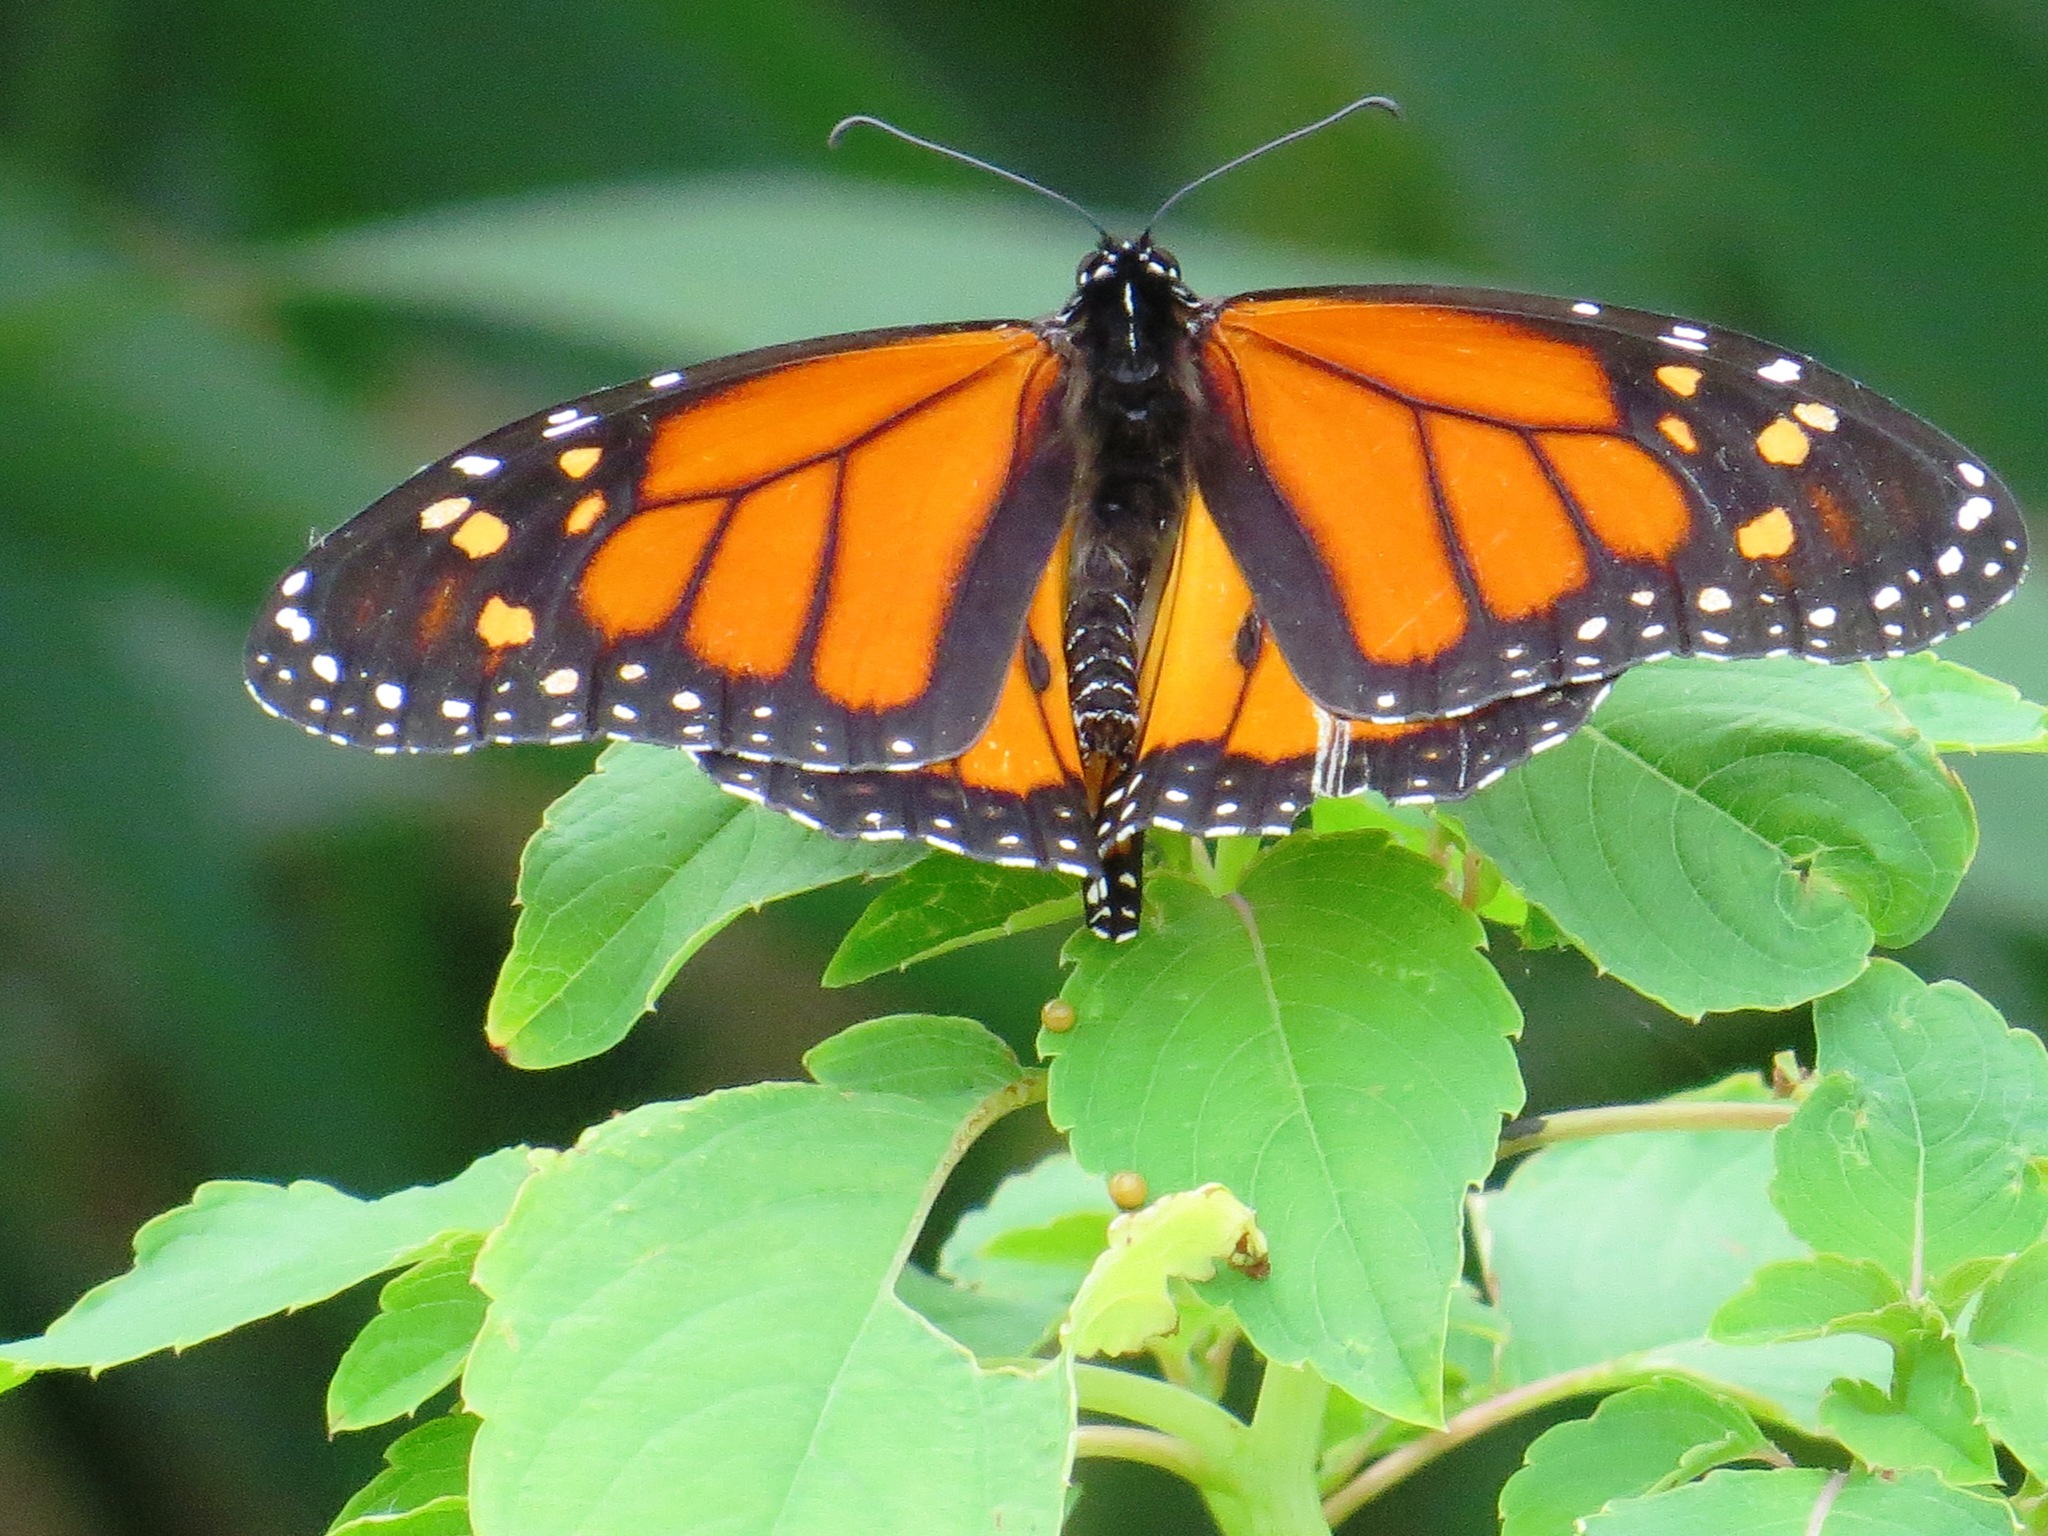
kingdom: Animalia
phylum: Arthropoda
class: Insecta
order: Lepidoptera
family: Nymphalidae
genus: Danaus
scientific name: Danaus plexippus
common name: Monarch
